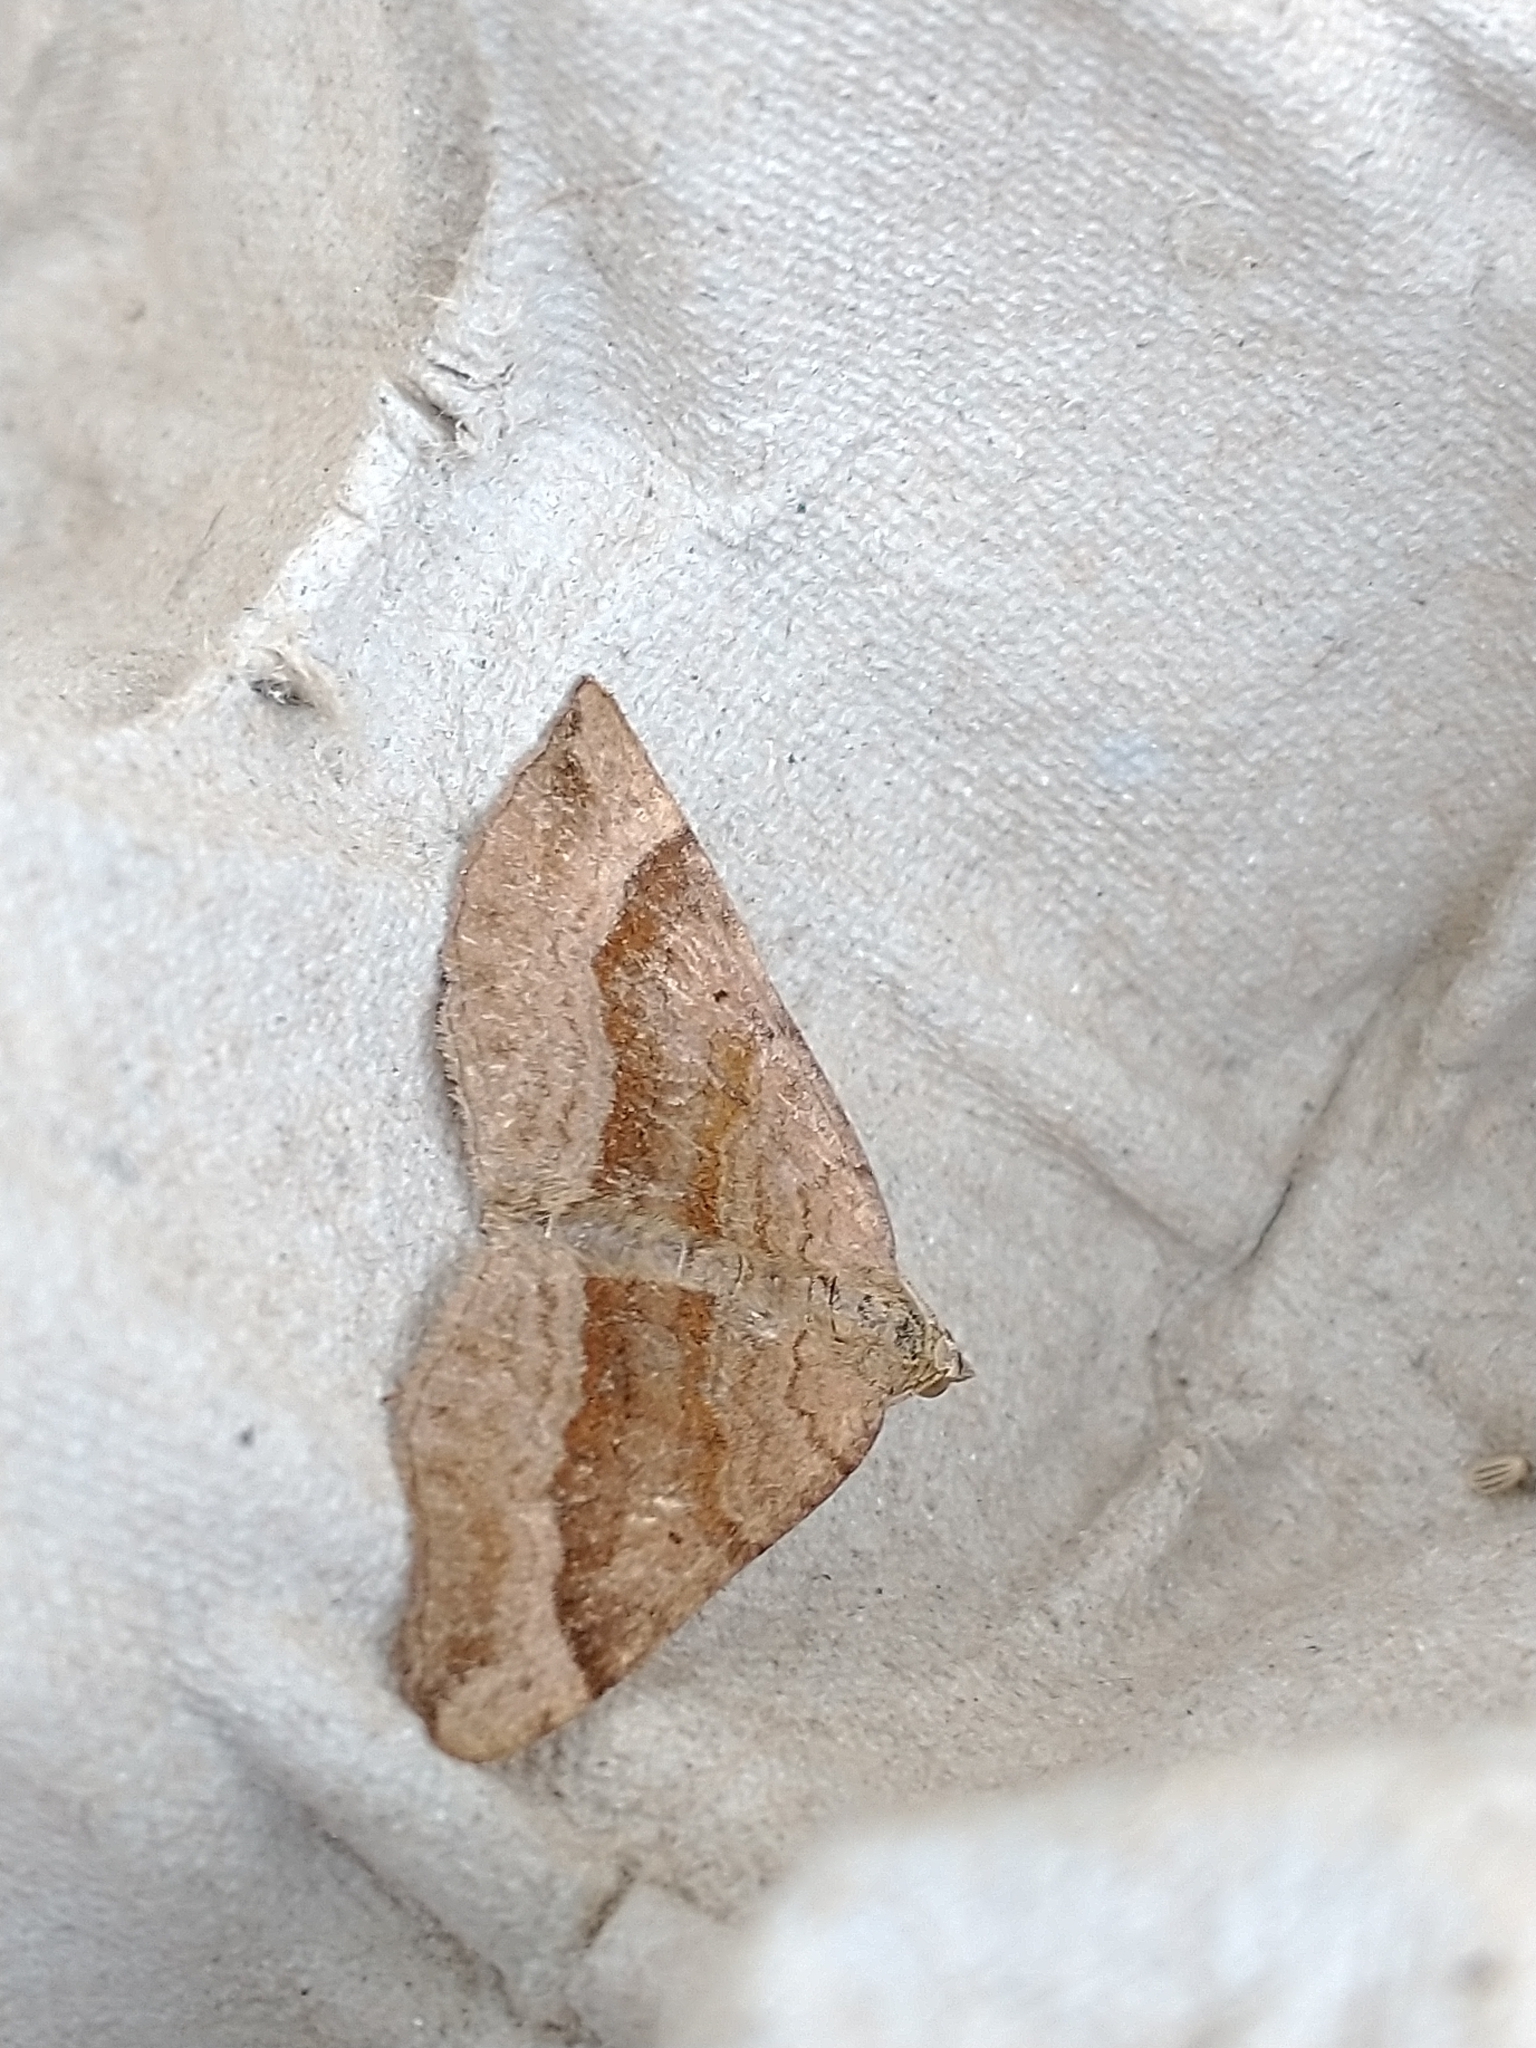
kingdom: Animalia
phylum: Arthropoda
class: Insecta
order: Lepidoptera
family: Geometridae
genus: Scotopteryx
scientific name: Scotopteryx chenopodiata
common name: Shaded broad-bar
